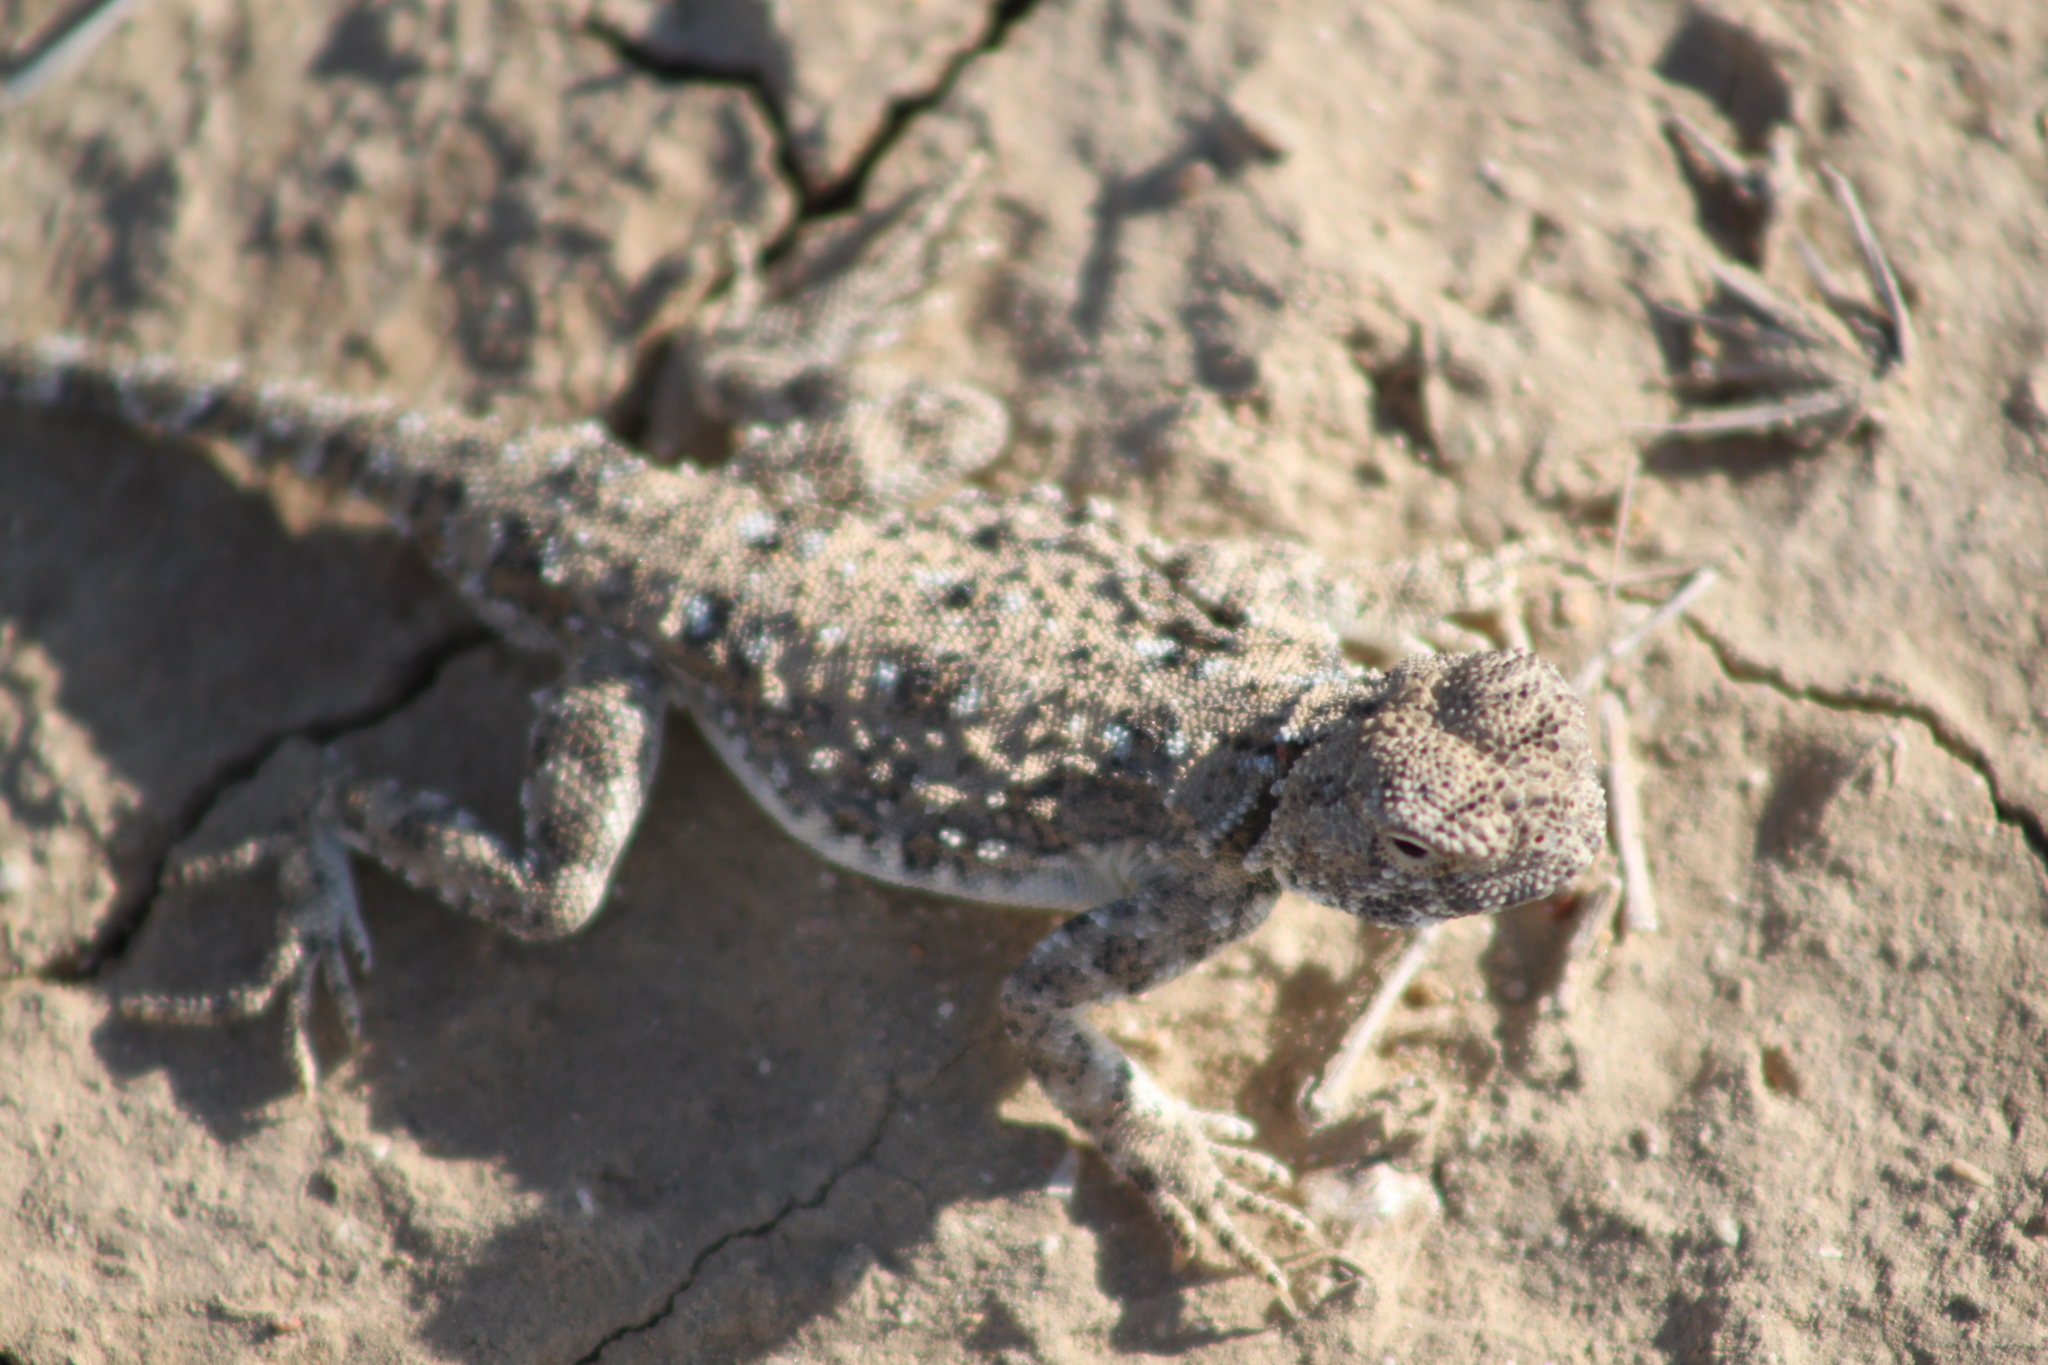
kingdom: Animalia
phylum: Chordata
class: Squamata
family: Agamidae
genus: Phrynocephalus
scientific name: Phrynocephalus helioscopus
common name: Sunwatcher
